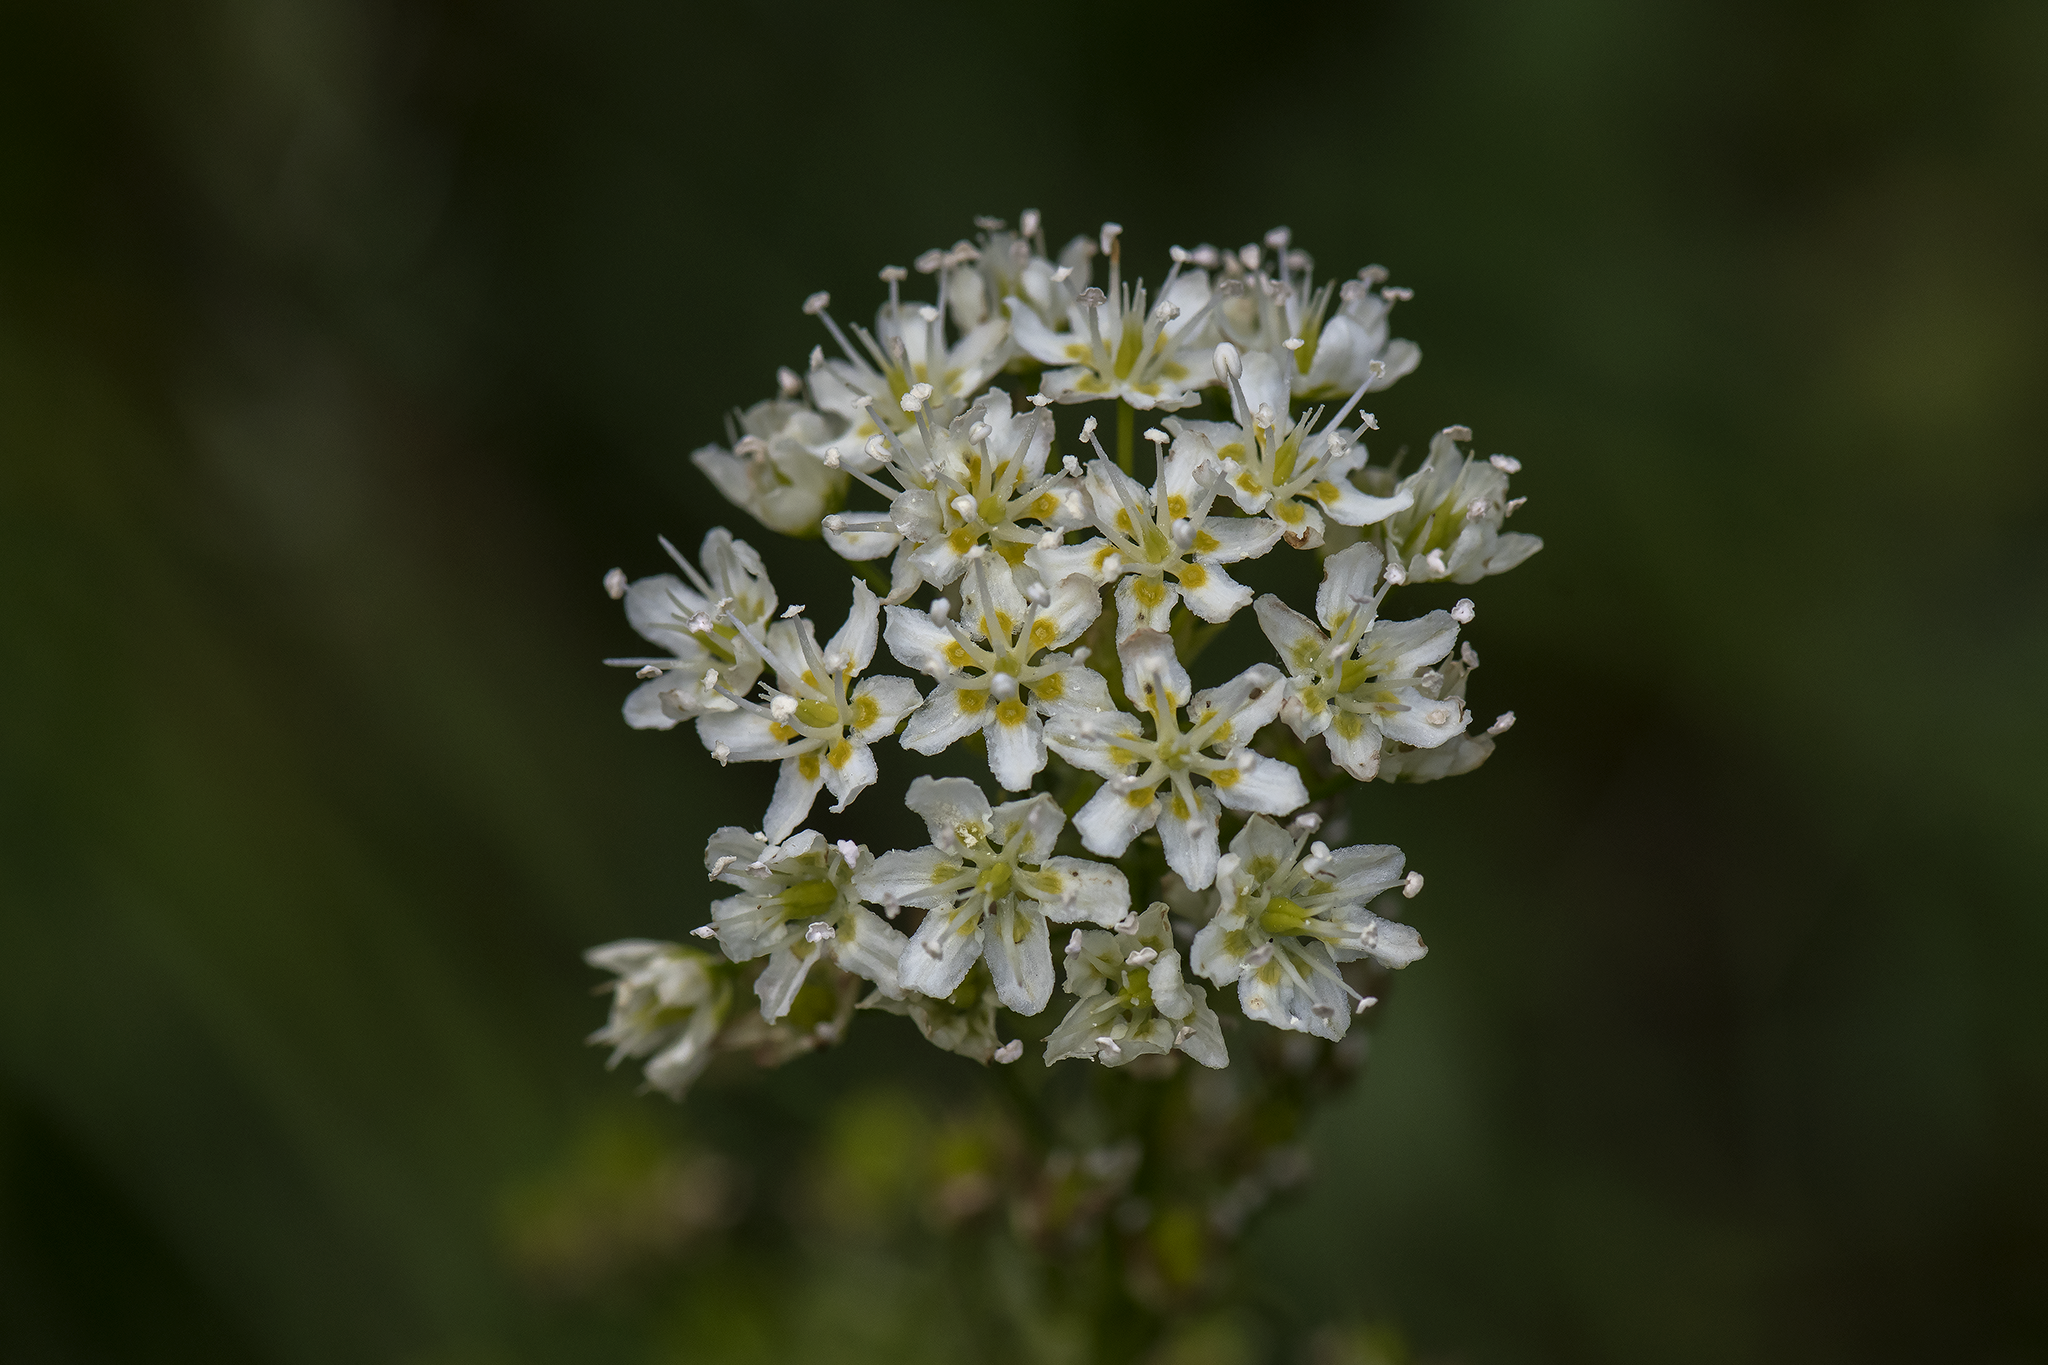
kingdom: Plantae
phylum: Tracheophyta
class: Liliopsida
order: Liliales
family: Melanthiaceae
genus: Toxicoscordion
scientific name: Toxicoscordion venenosum
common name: Meadow death camas
